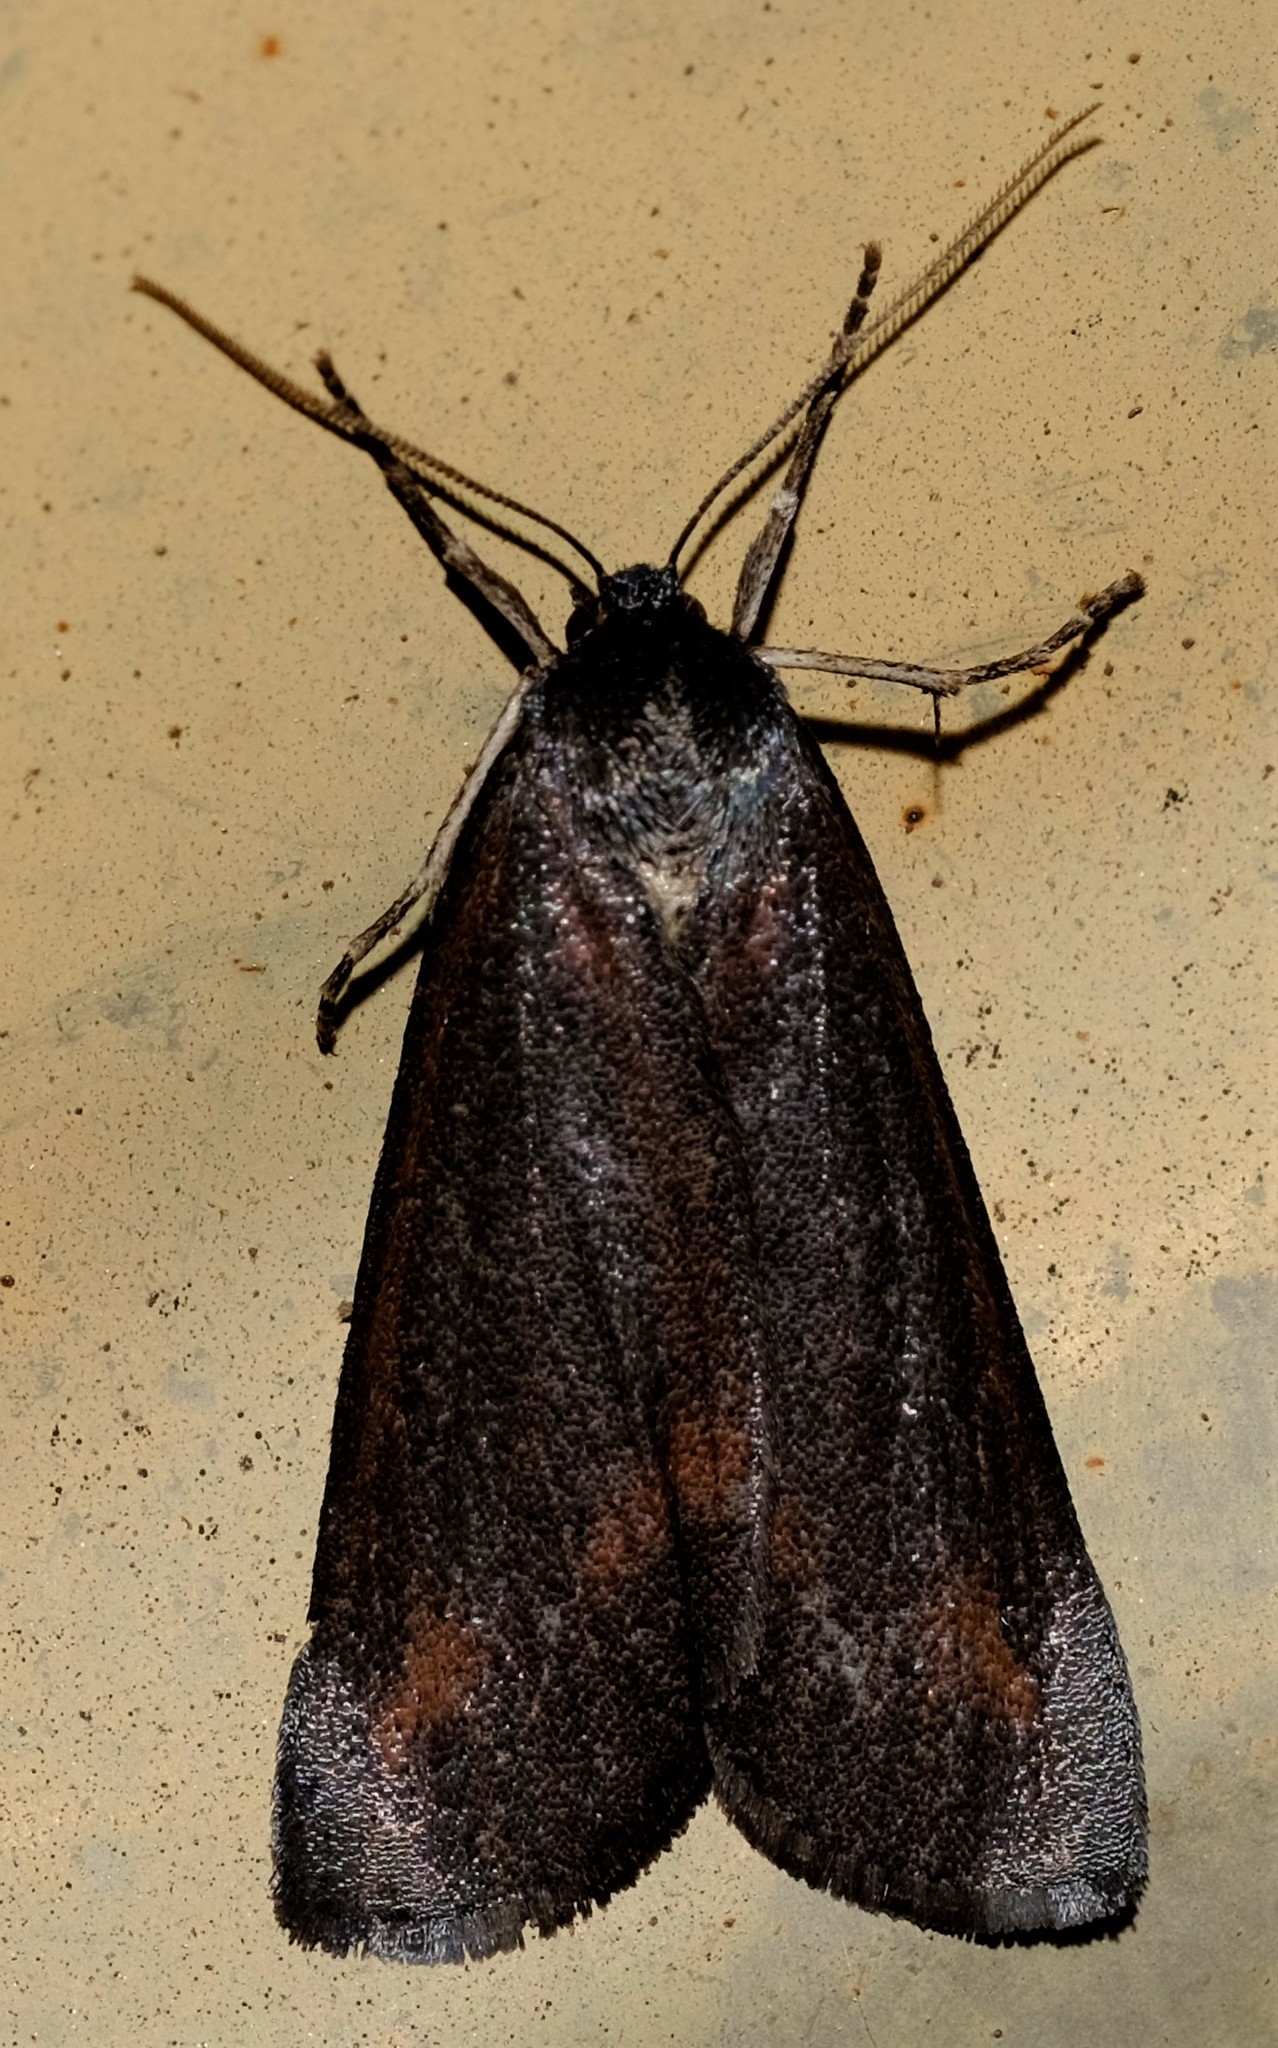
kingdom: Animalia
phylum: Arthropoda
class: Insecta
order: Lepidoptera
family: Geometridae
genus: Chlenias
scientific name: Chlenias seminigra
